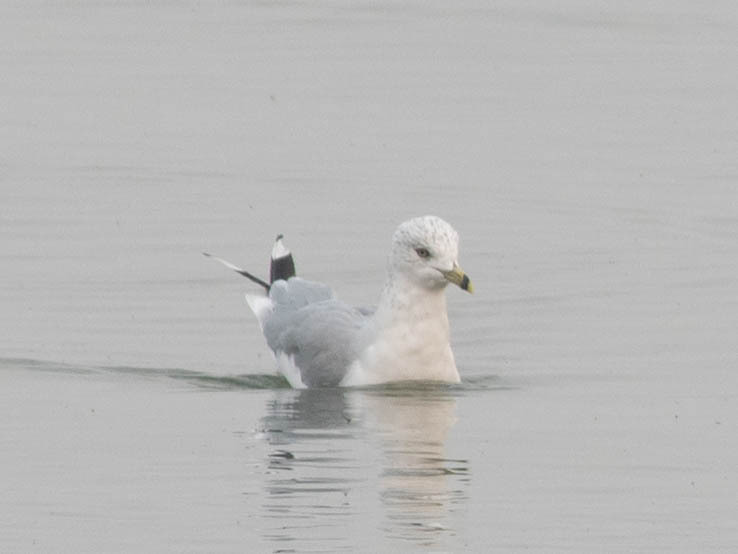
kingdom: Animalia
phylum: Chordata
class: Aves
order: Charadriiformes
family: Laridae
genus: Larus
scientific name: Larus delawarensis
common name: Ring-billed gull
